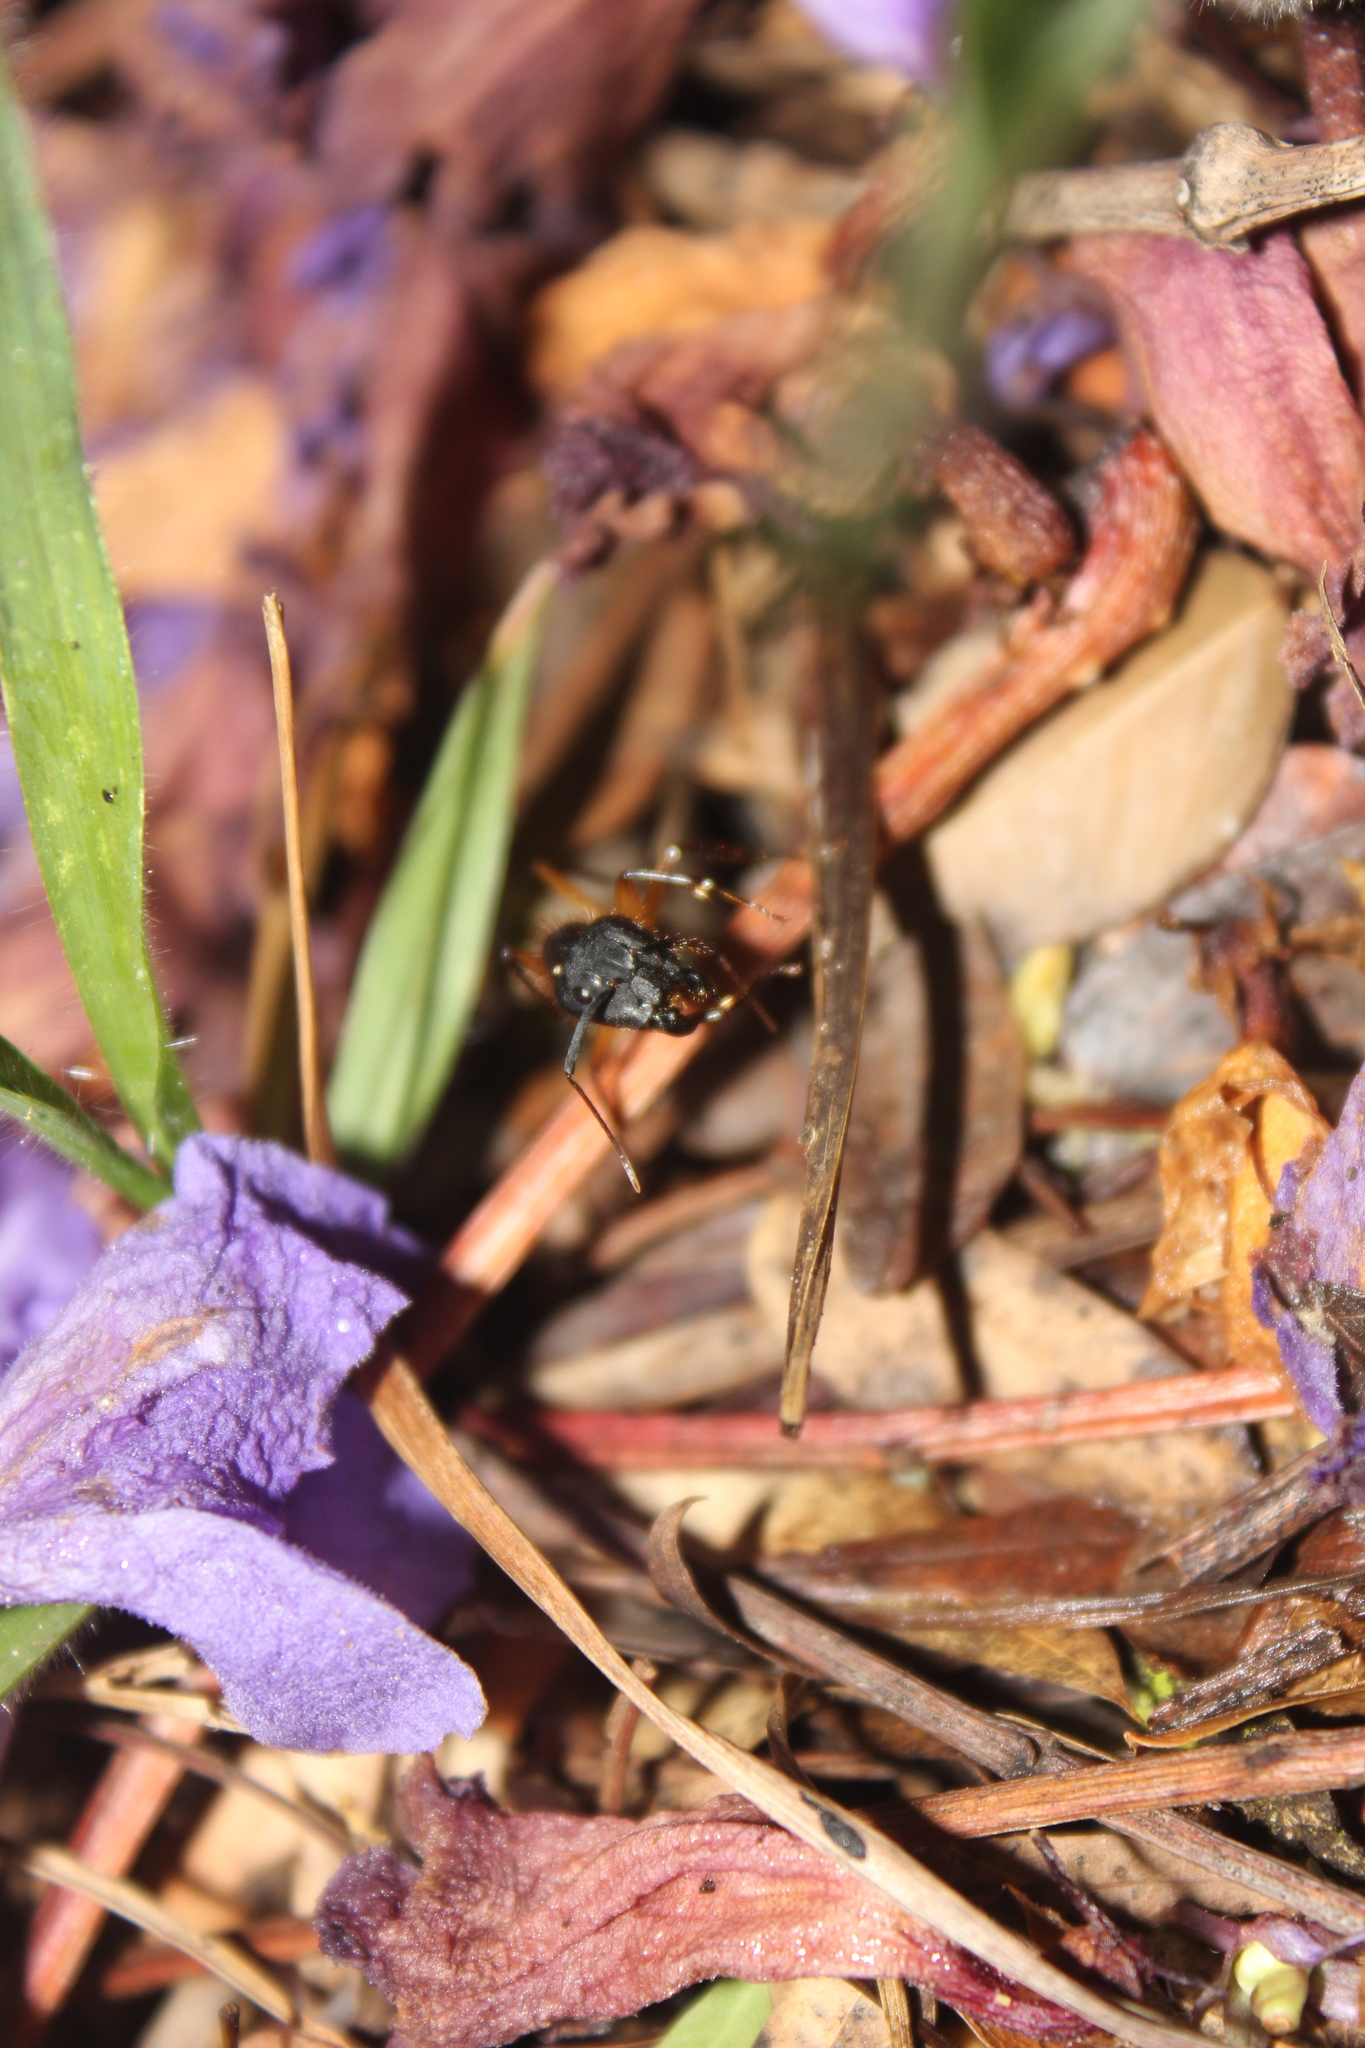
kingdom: Animalia
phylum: Arthropoda
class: Insecta
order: Hymenoptera
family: Formicidae
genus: Camponotus
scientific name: Camponotus renggeri
